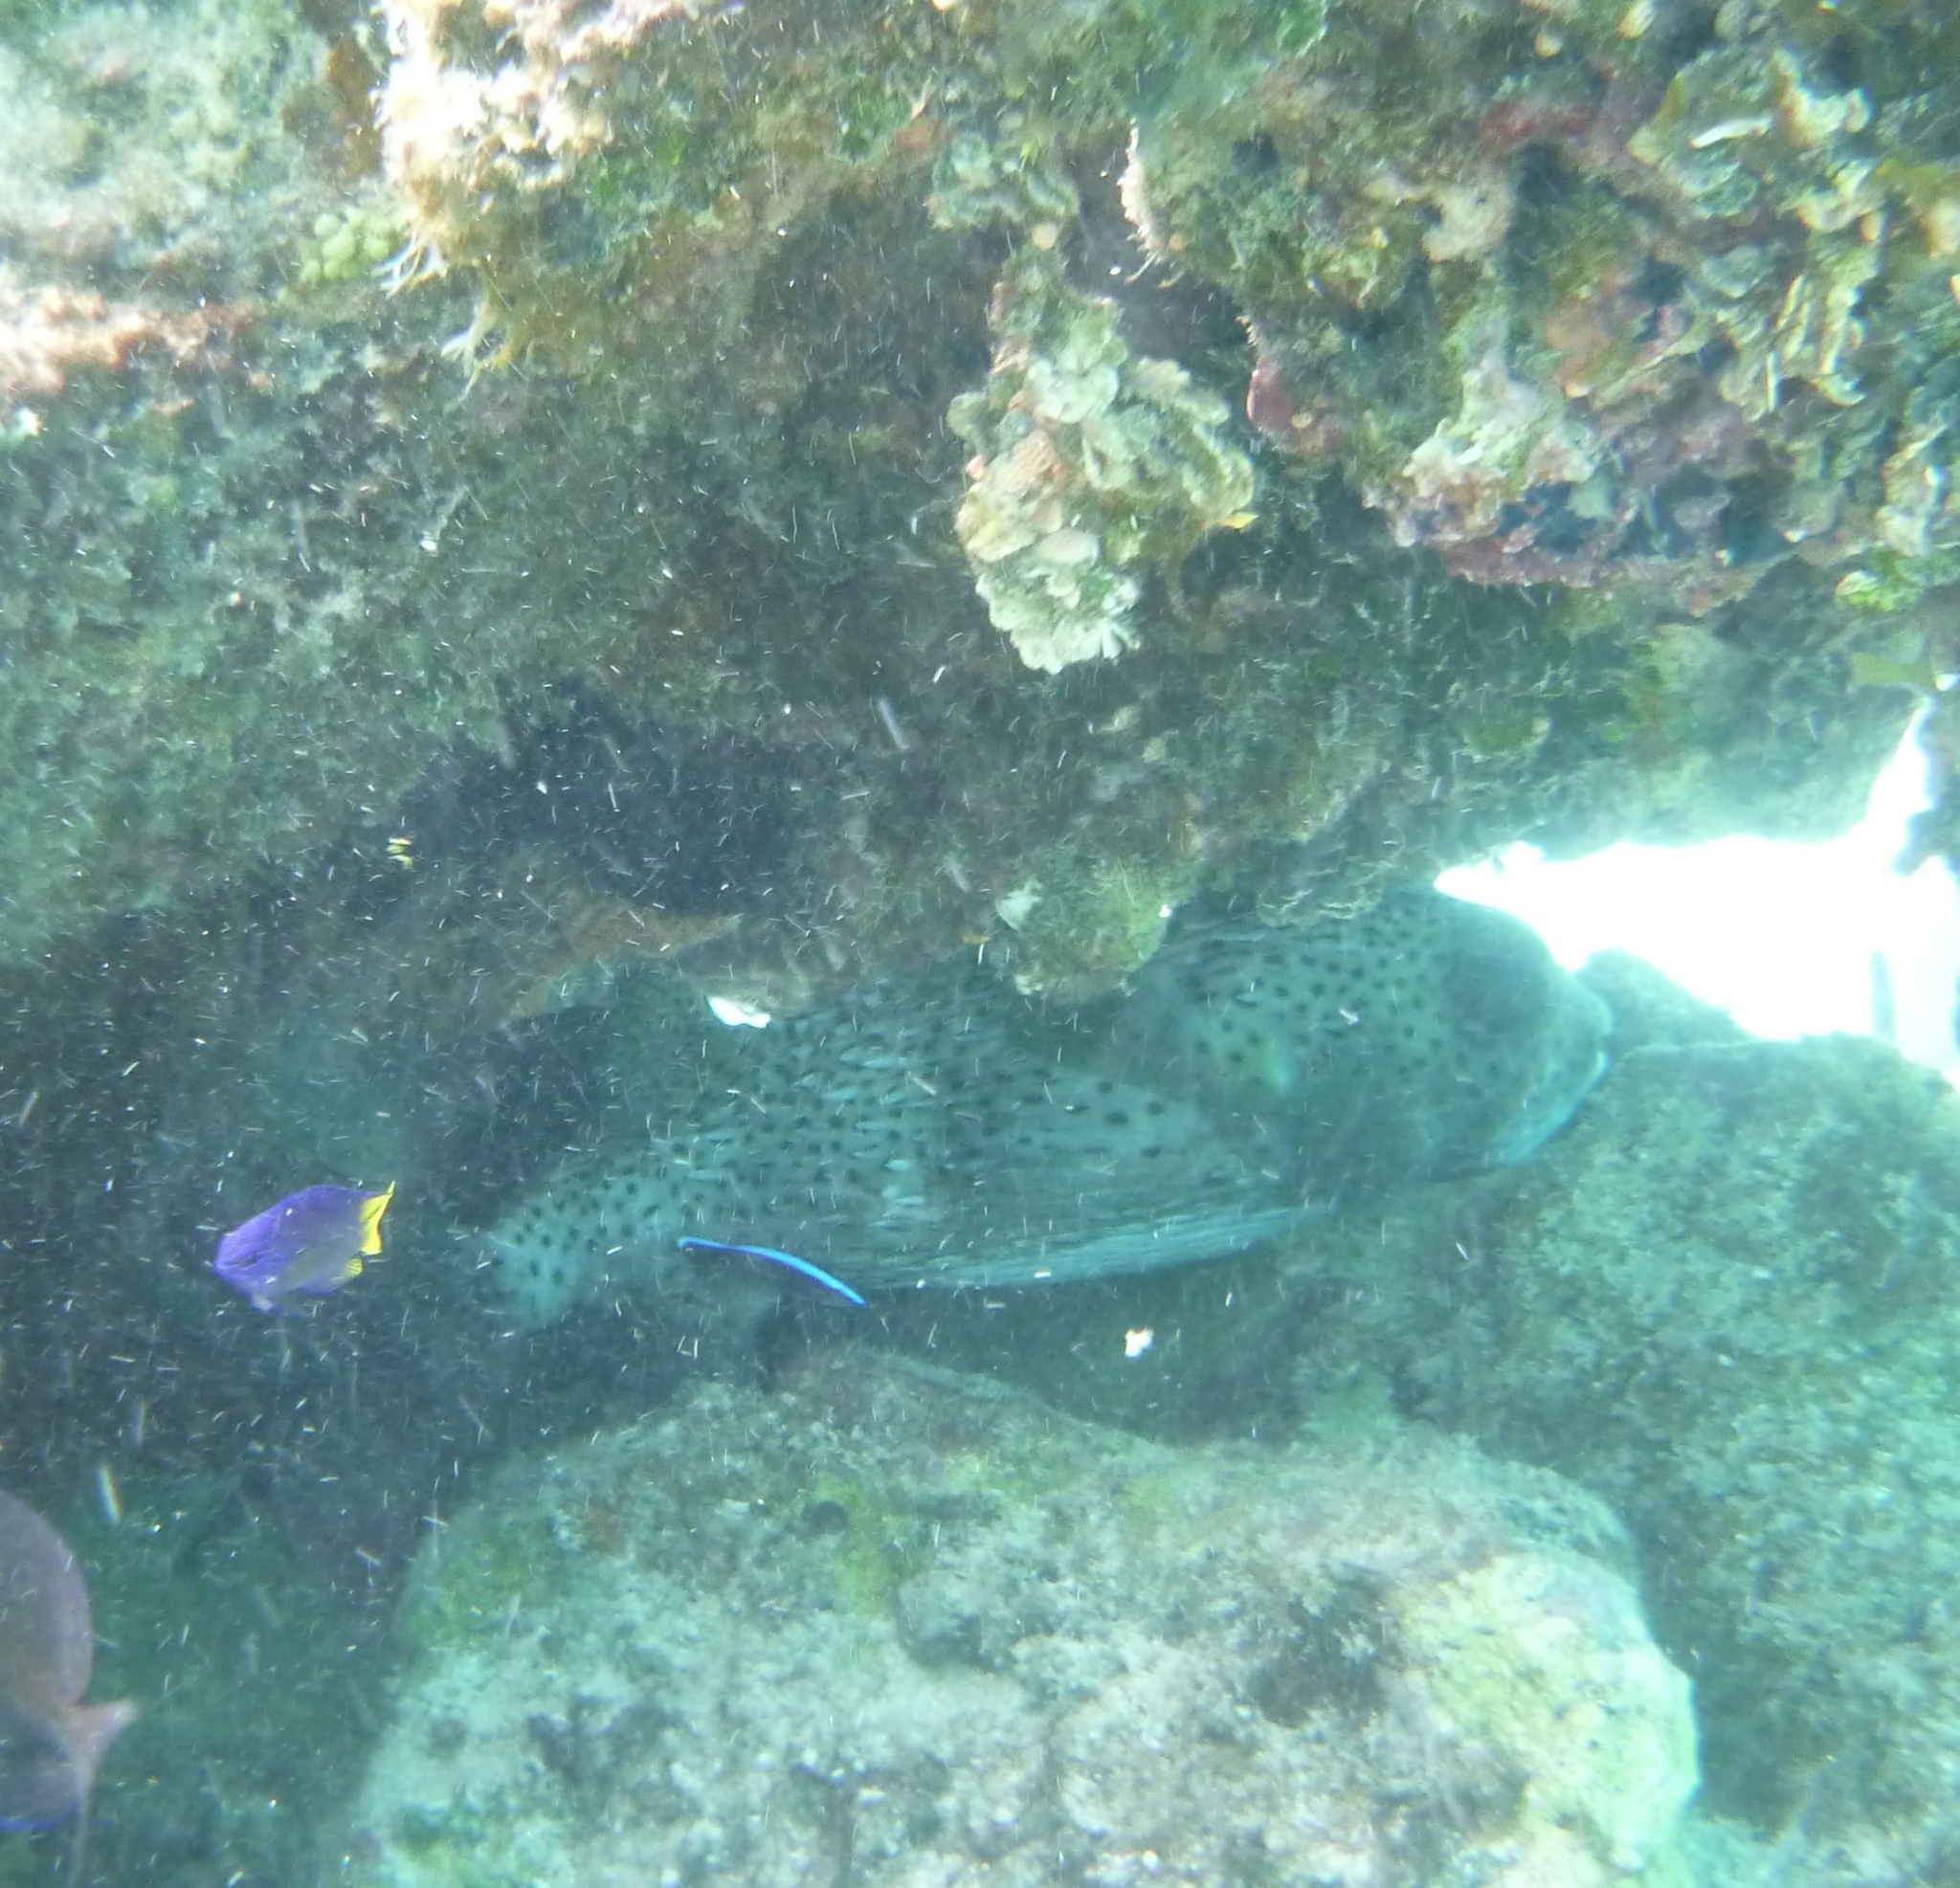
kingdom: Animalia
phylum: Chordata
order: Tetraodontiformes
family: Diodontidae
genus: Diodon
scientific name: Diodon hystrix
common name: Giant porcupinefish
